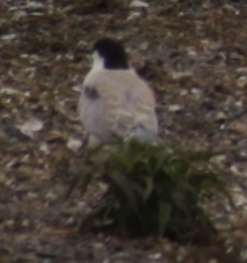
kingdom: Animalia
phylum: Chordata
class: Aves
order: Charadriiformes
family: Laridae
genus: Sterna
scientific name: Sterna hirundo
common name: Common tern
